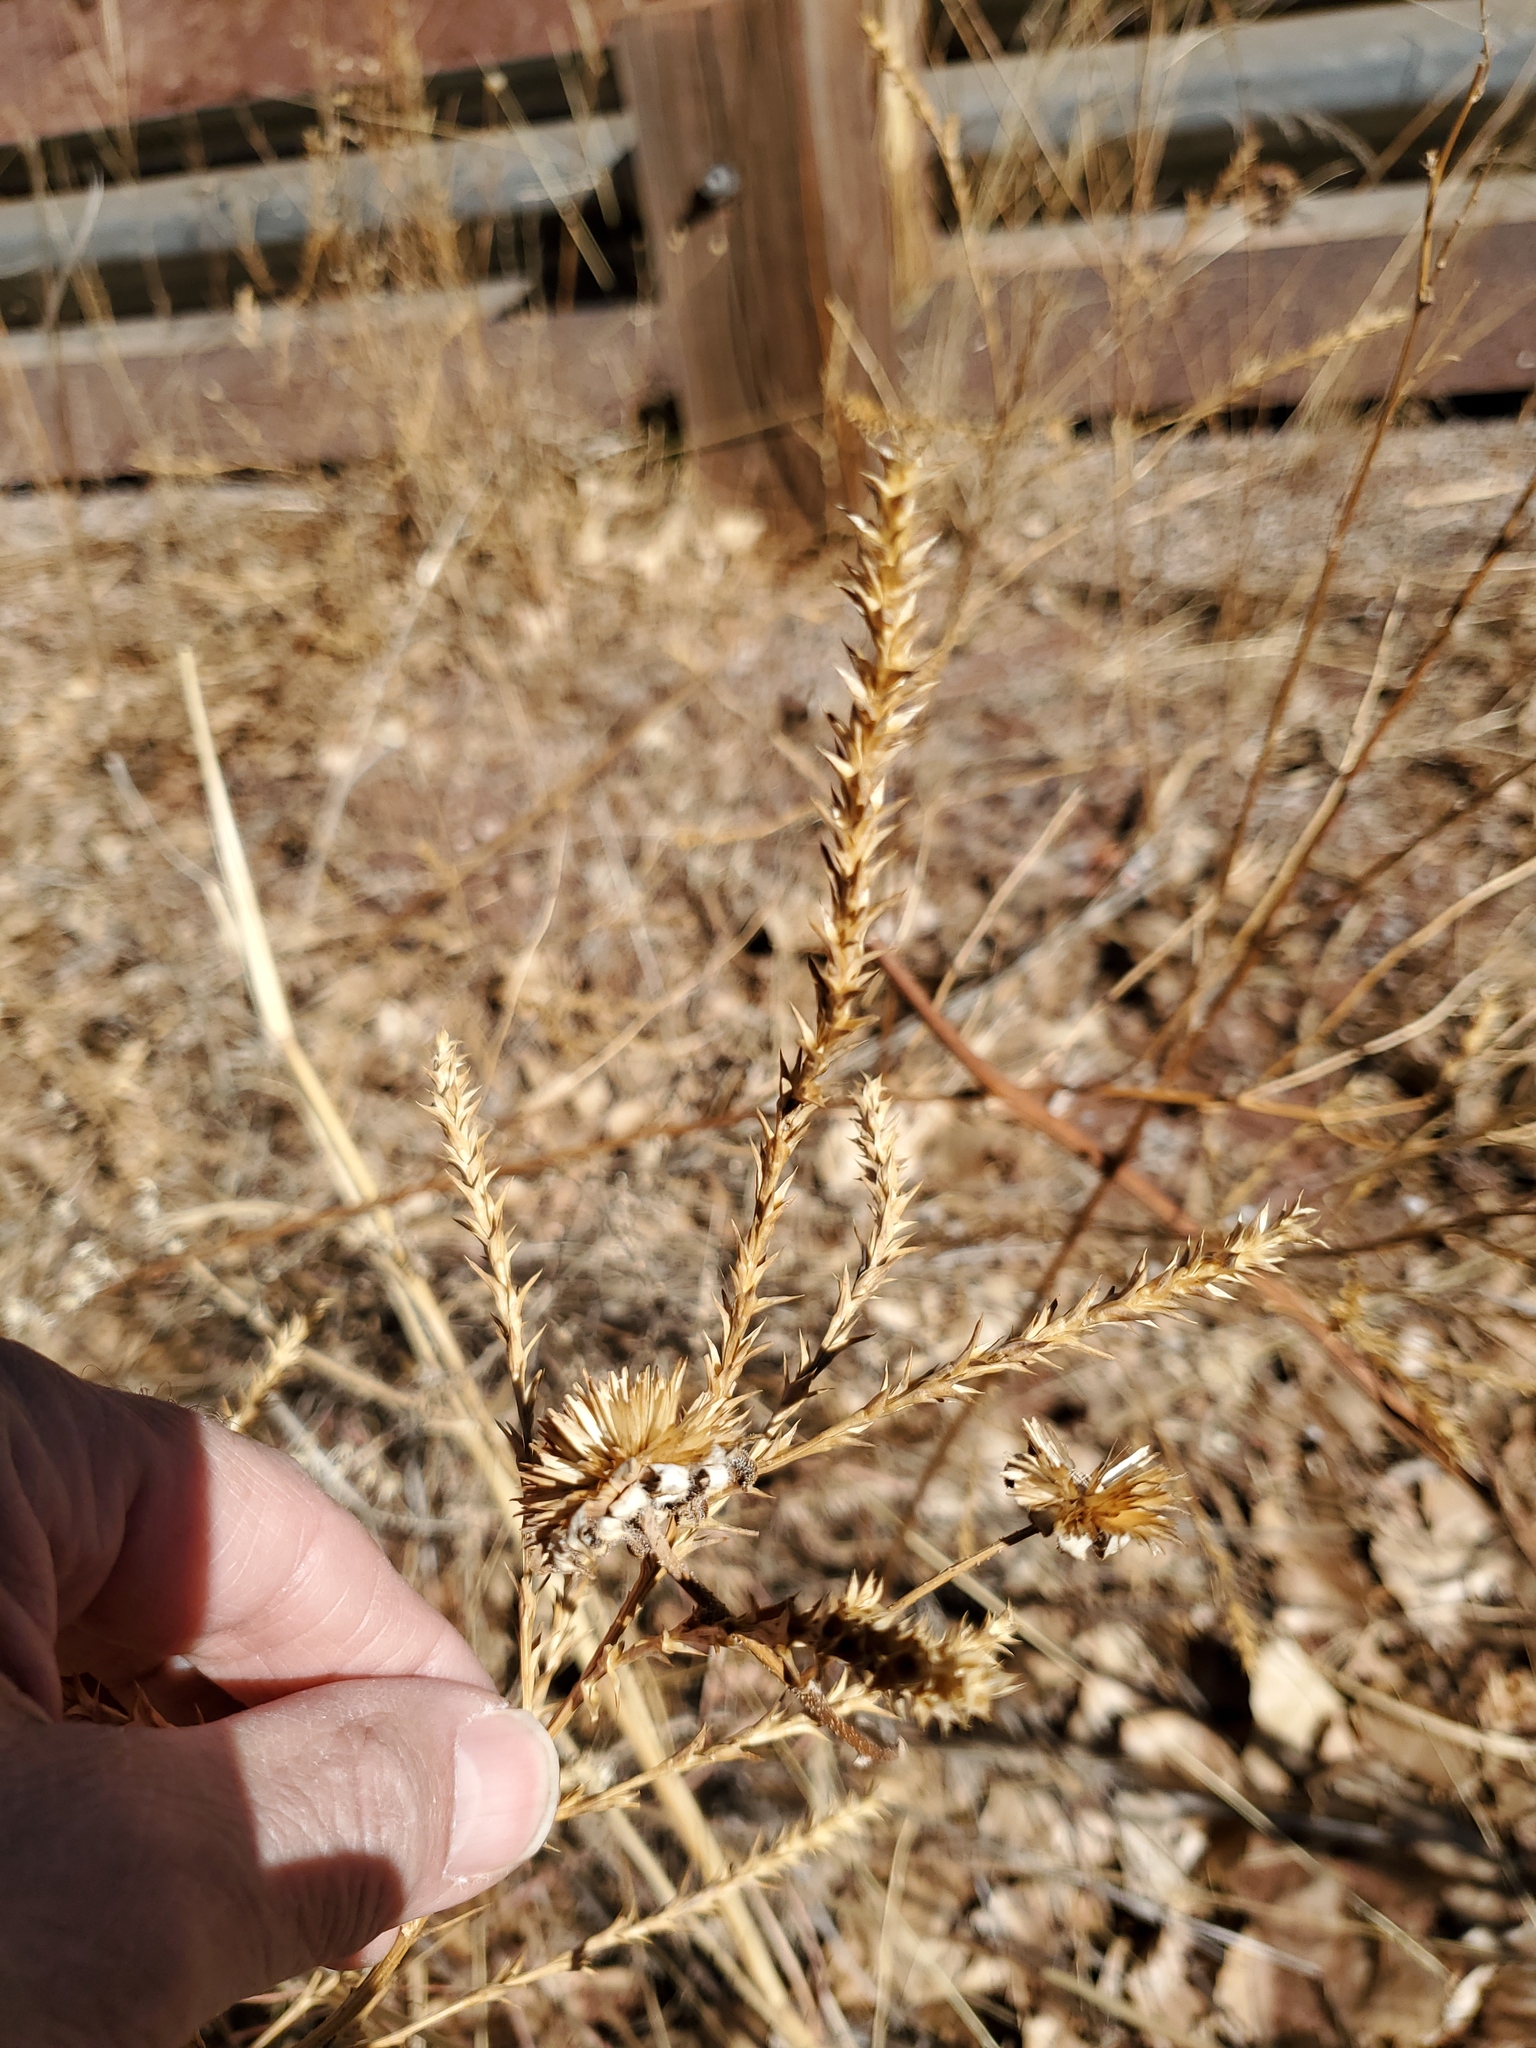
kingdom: Plantae
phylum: Tracheophyta
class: Magnoliopsida
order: Caryophyllales
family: Amaranthaceae
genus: Salsola
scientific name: Salsola tragus
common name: Prickly russian thistle
